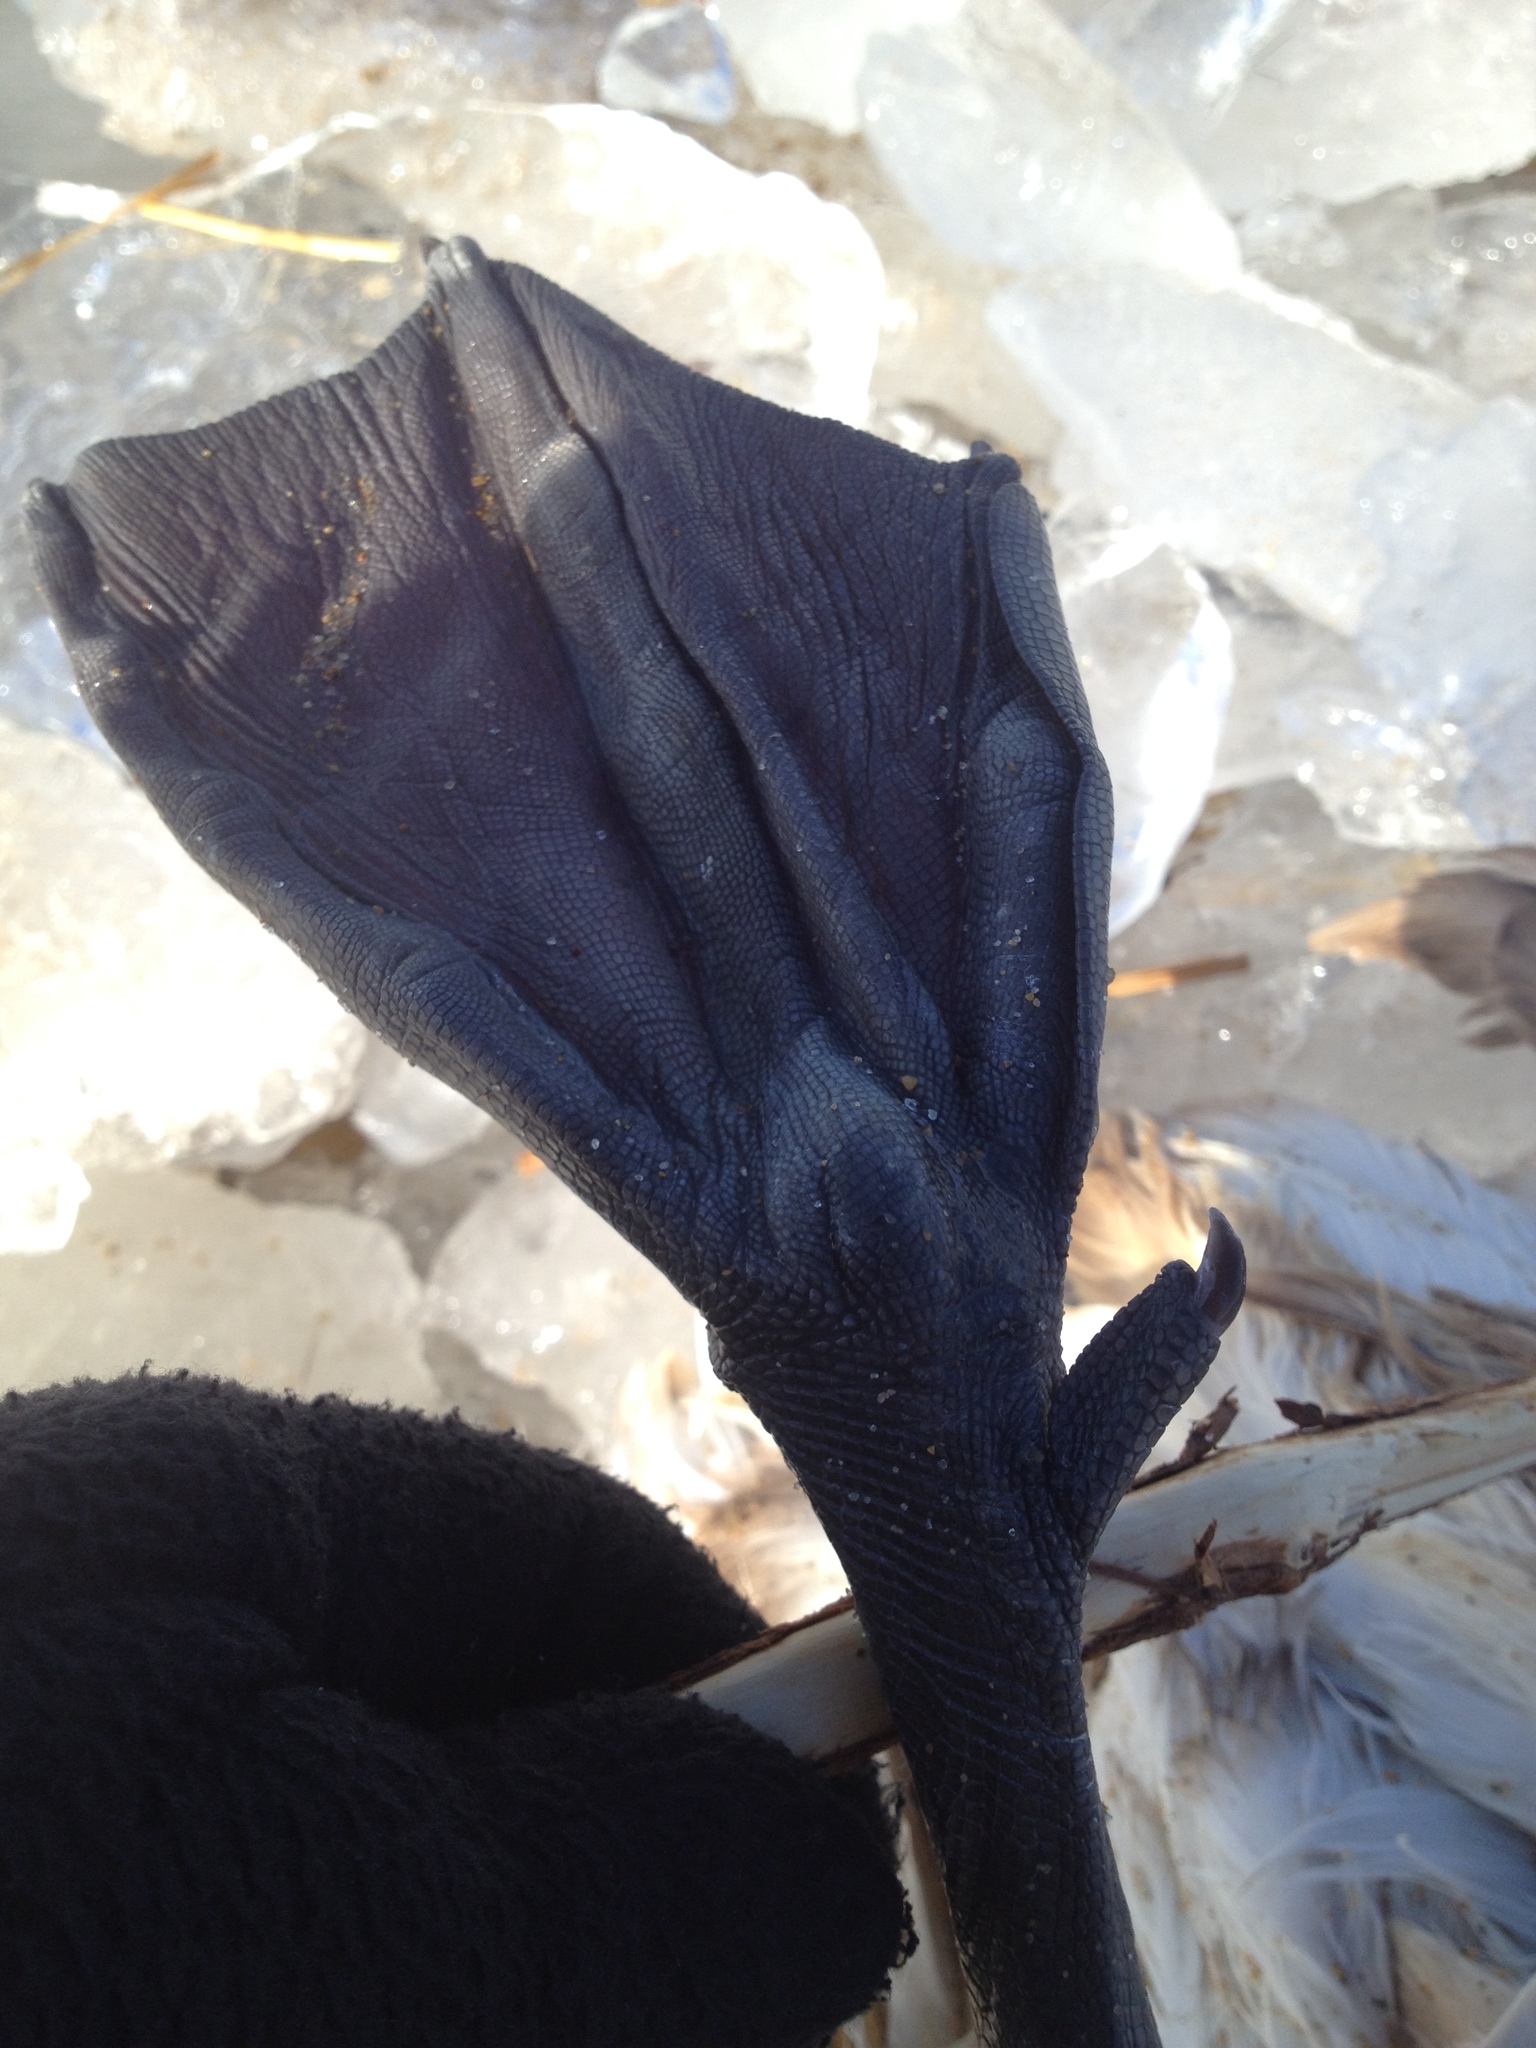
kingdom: Animalia
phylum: Chordata
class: Aves
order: Anseriformes
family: Anatidae
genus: Cygnus
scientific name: Cygnus olor
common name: Mute swan
